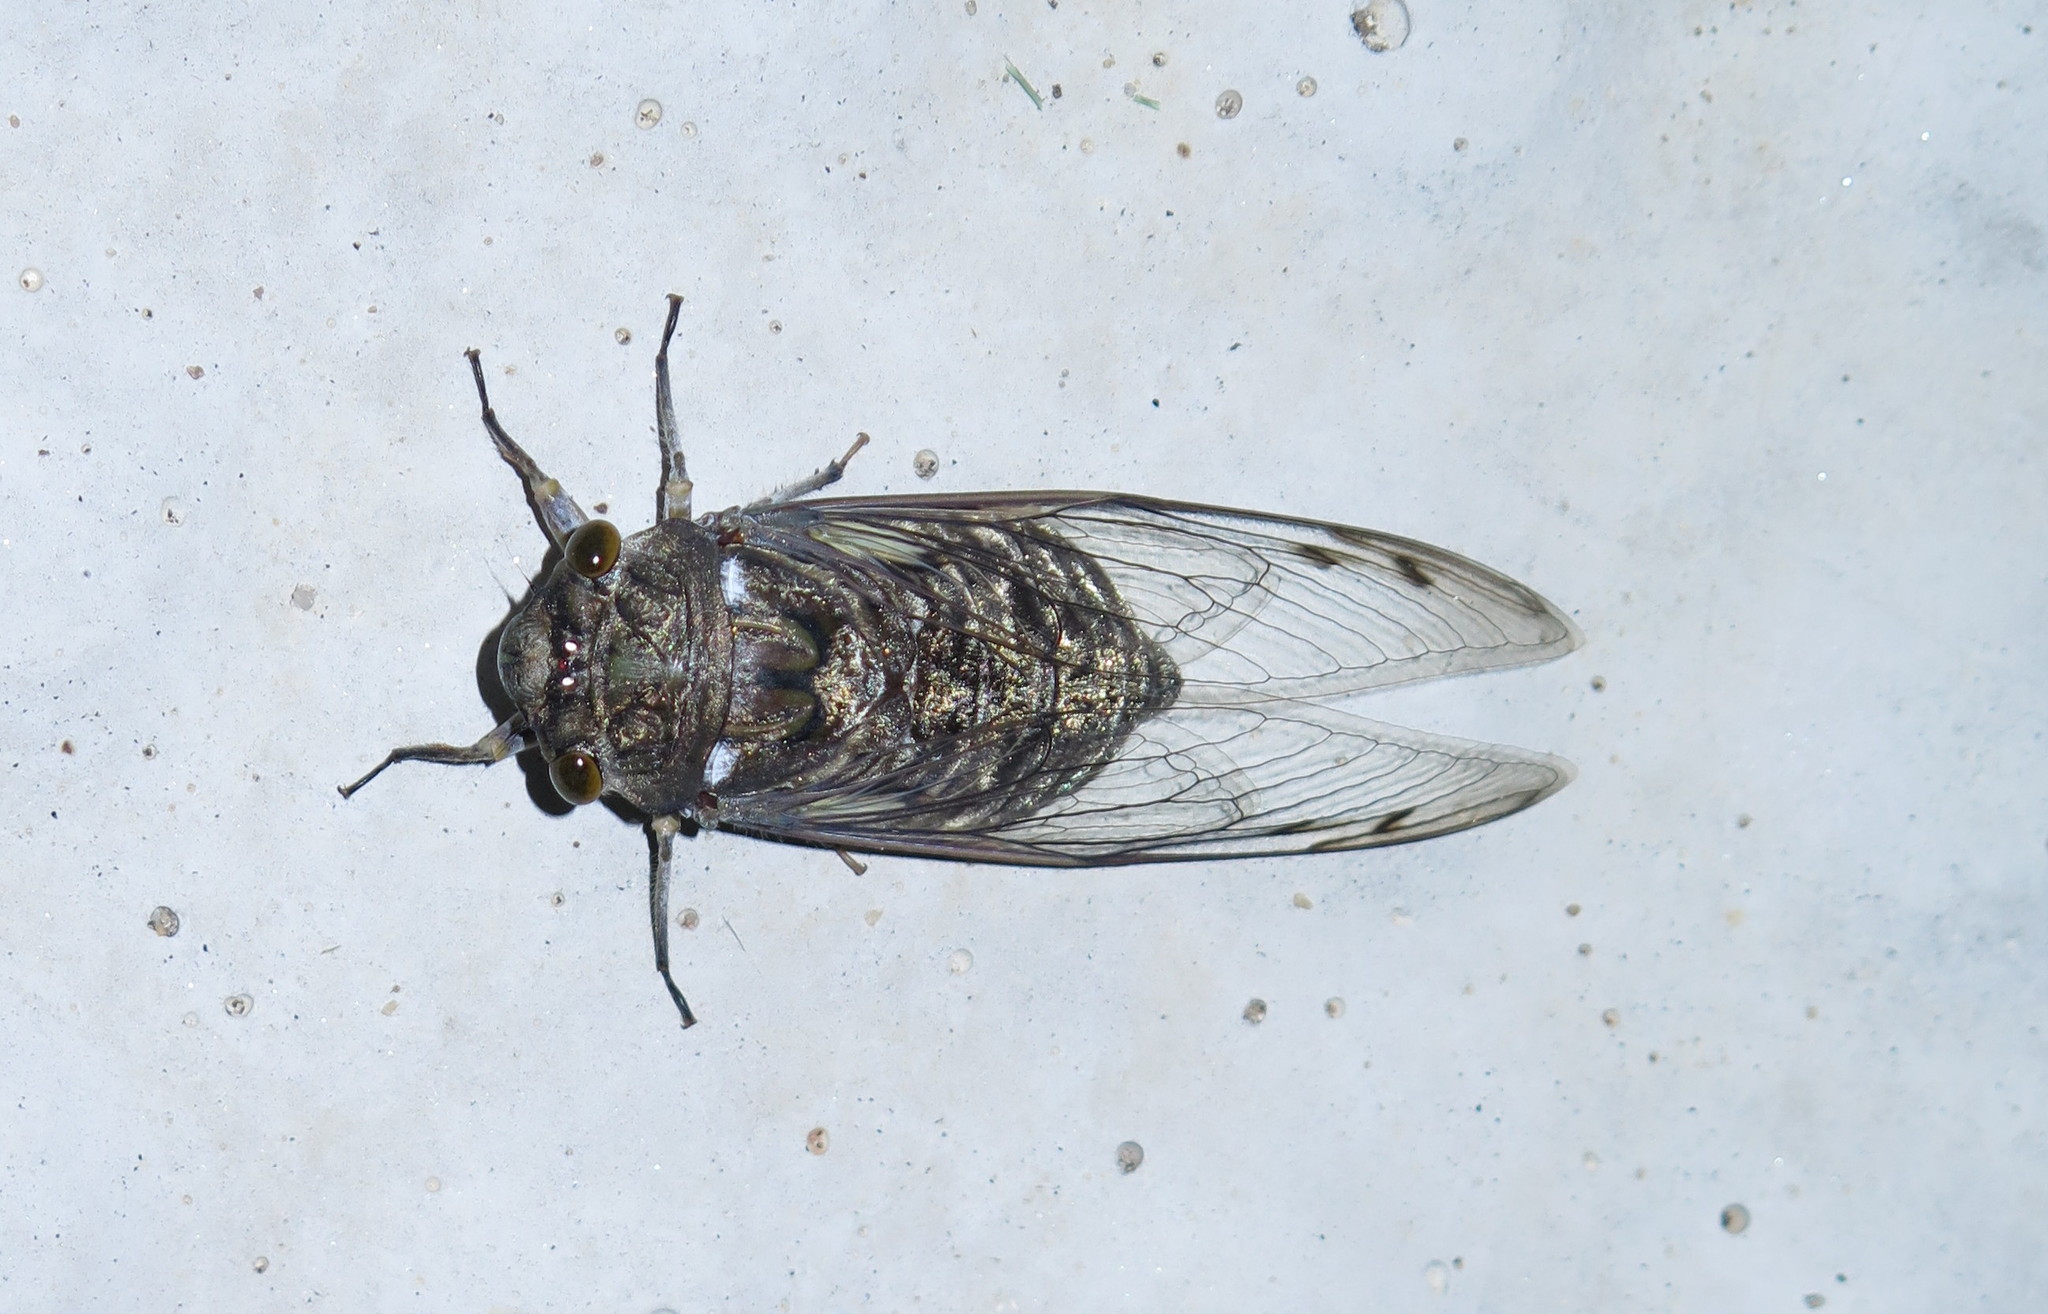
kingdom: Animalia
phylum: Arthropoda
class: Insecta
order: Hemiptera
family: Cicadidae
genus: Quesada
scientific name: Quesada gigas
